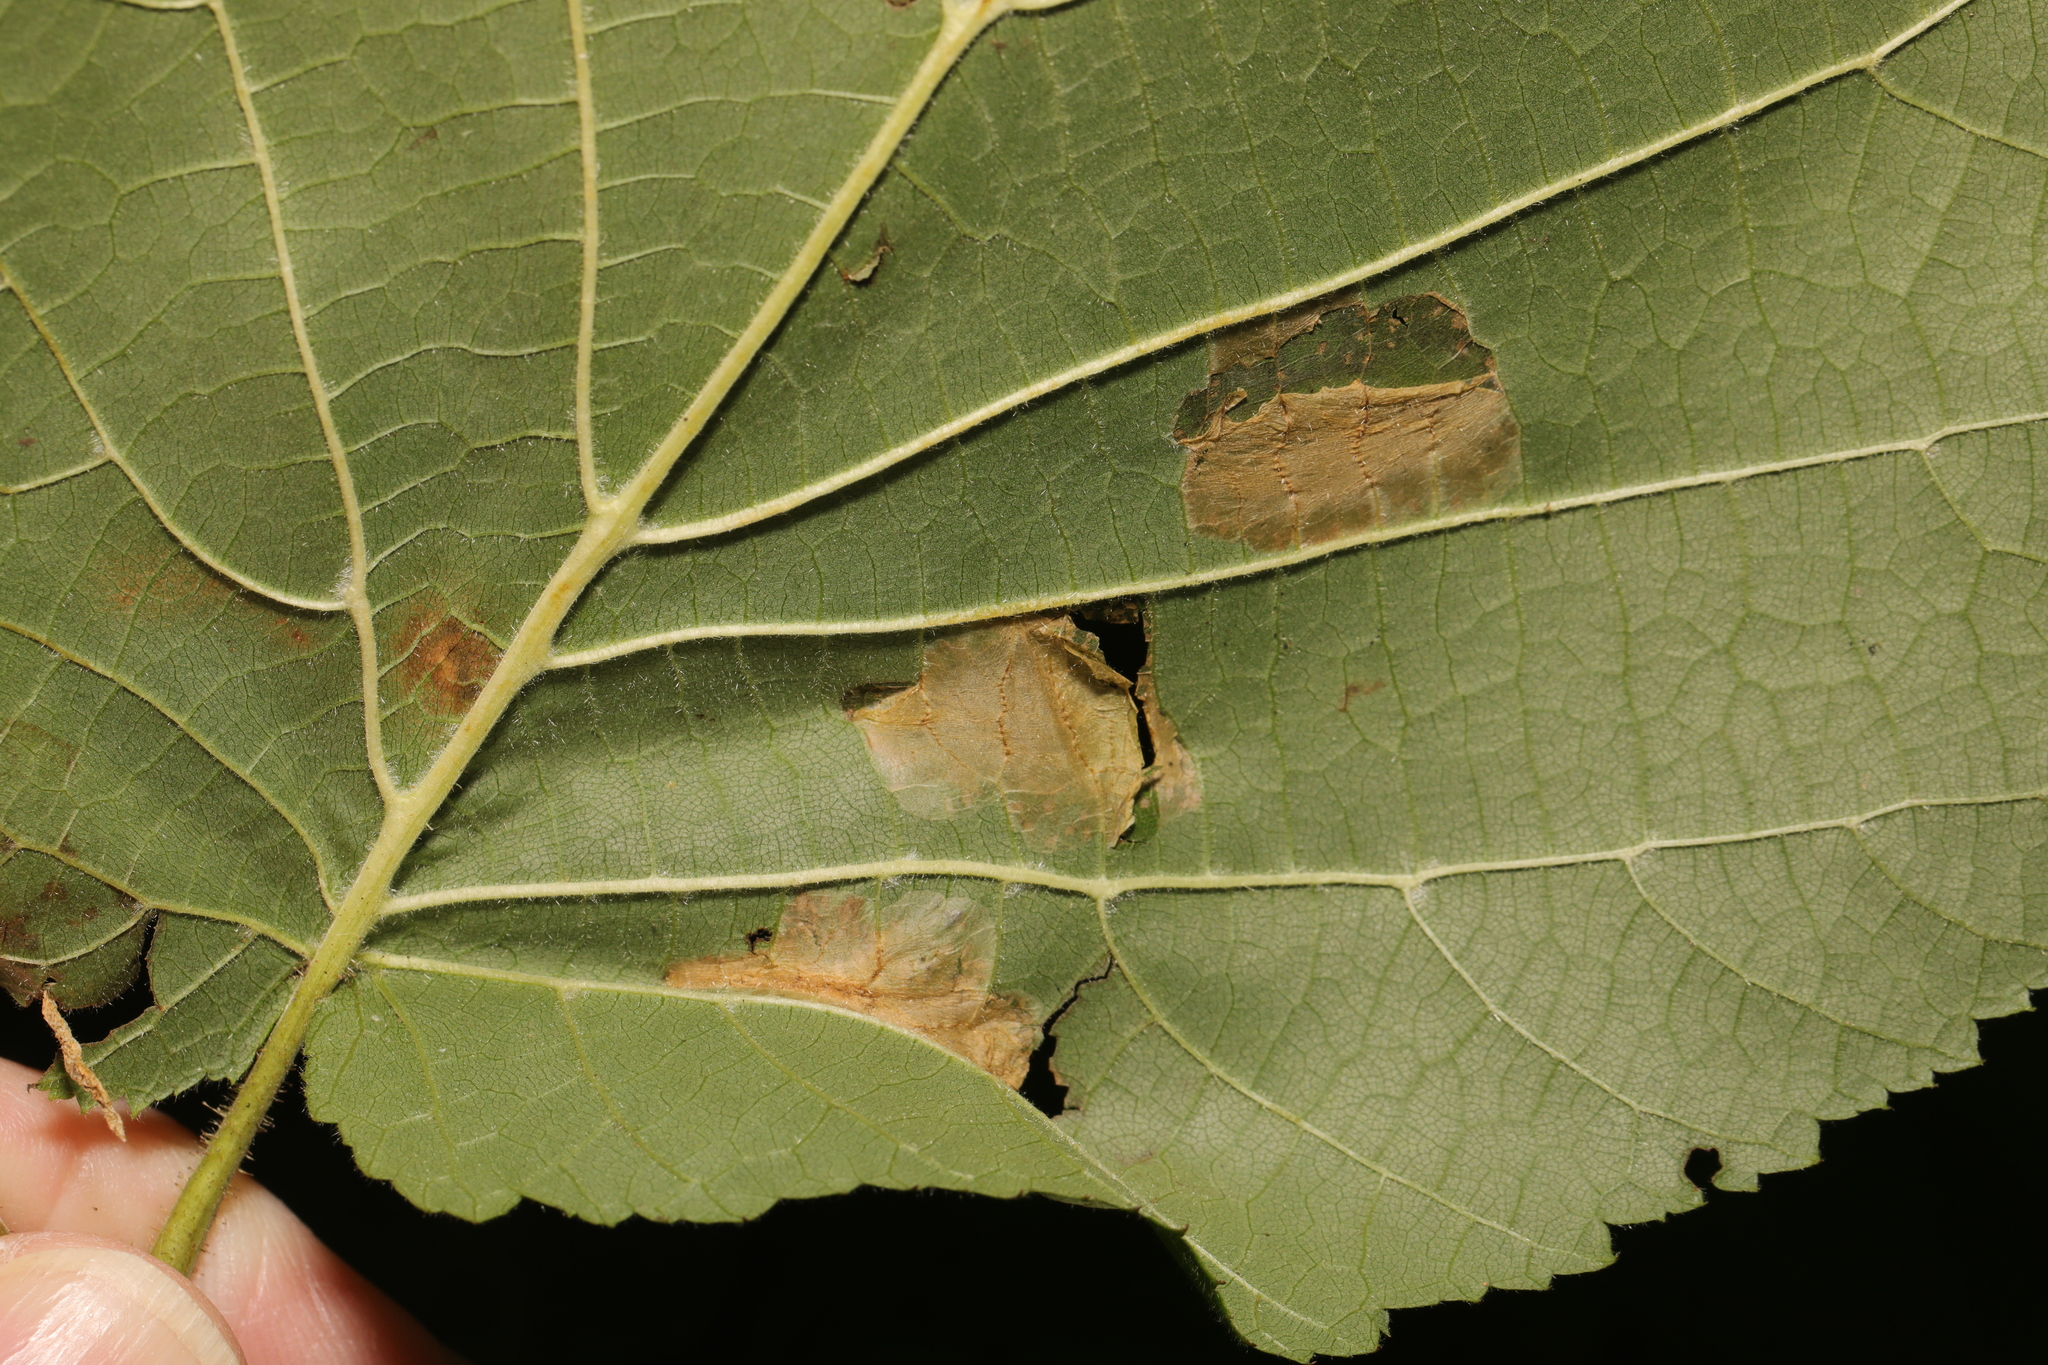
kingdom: Animalia
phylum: Arthropoda
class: Insecta
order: Lepidoptera
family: Gracillariidae
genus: Phyllonorycter
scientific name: Phyllonorycter nicellii
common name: Red hazel midget
